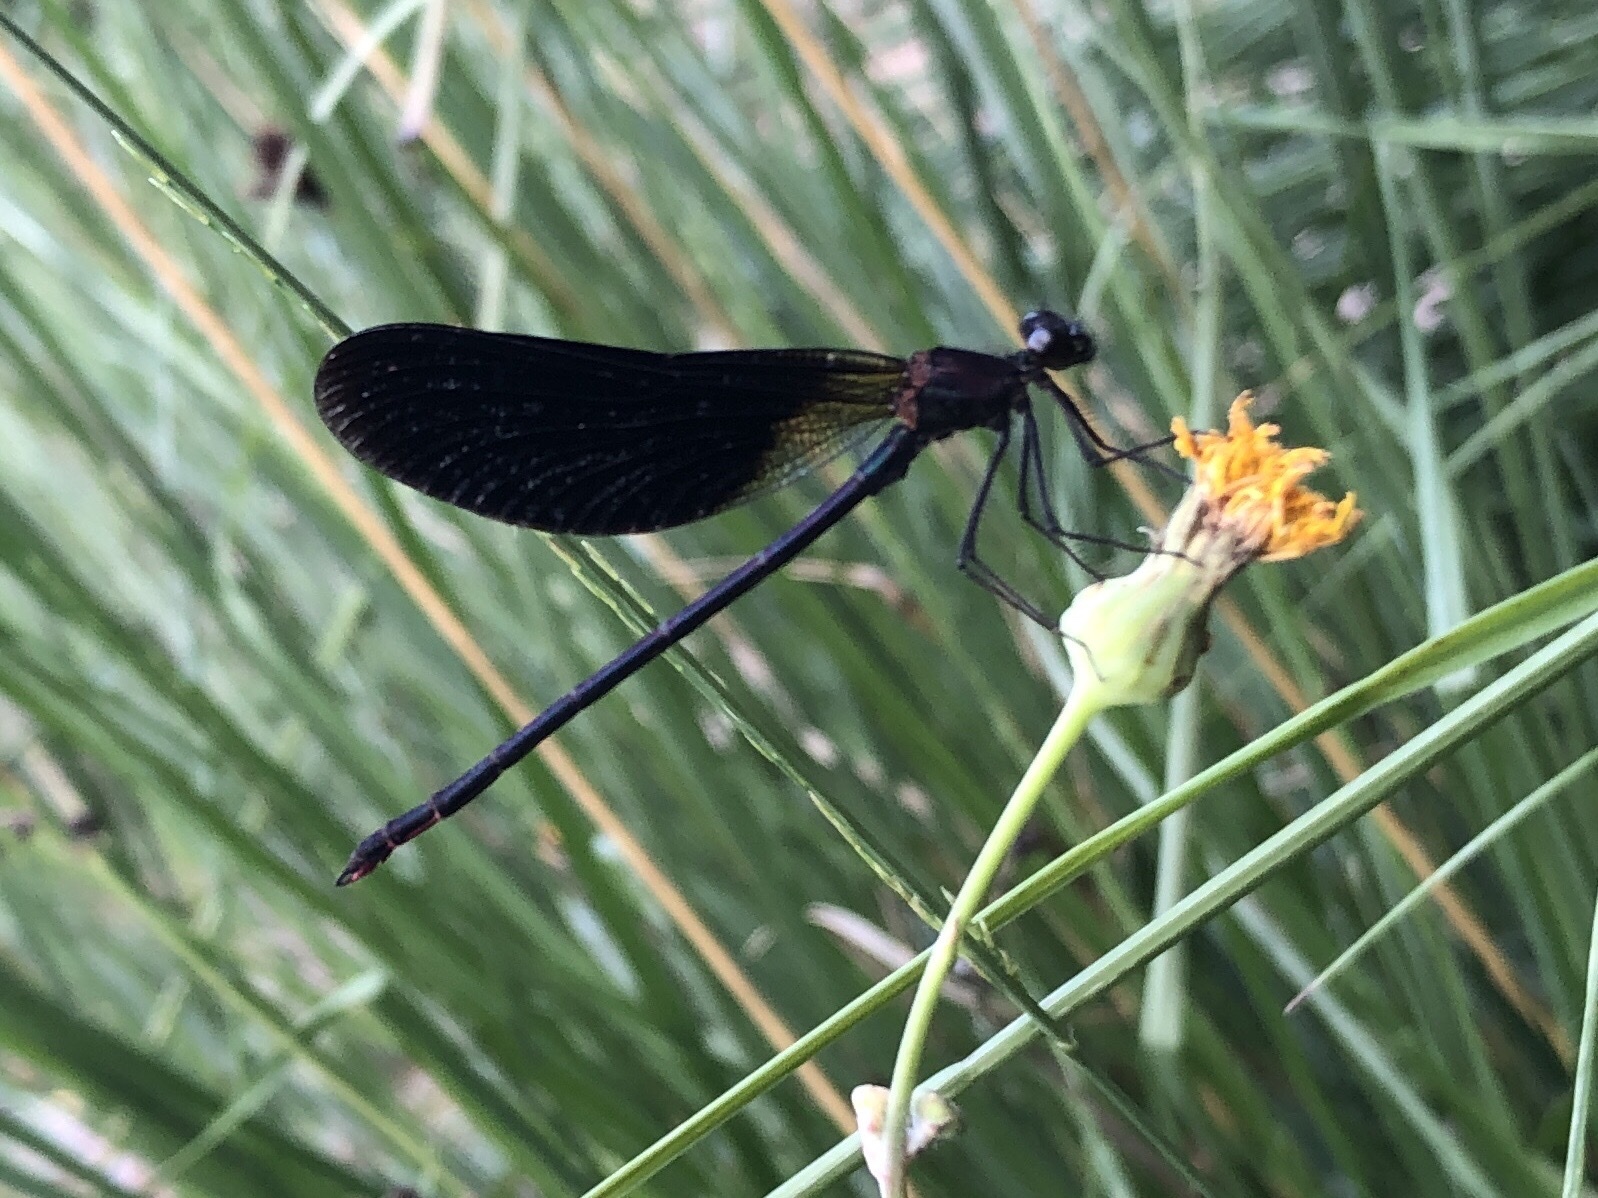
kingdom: Animalia
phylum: Arthropoda
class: Insecta
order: Odonata
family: Calopterygidae
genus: Calopteryx
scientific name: Calopteryx haemorrhoidalis
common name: Copper demoiselle
